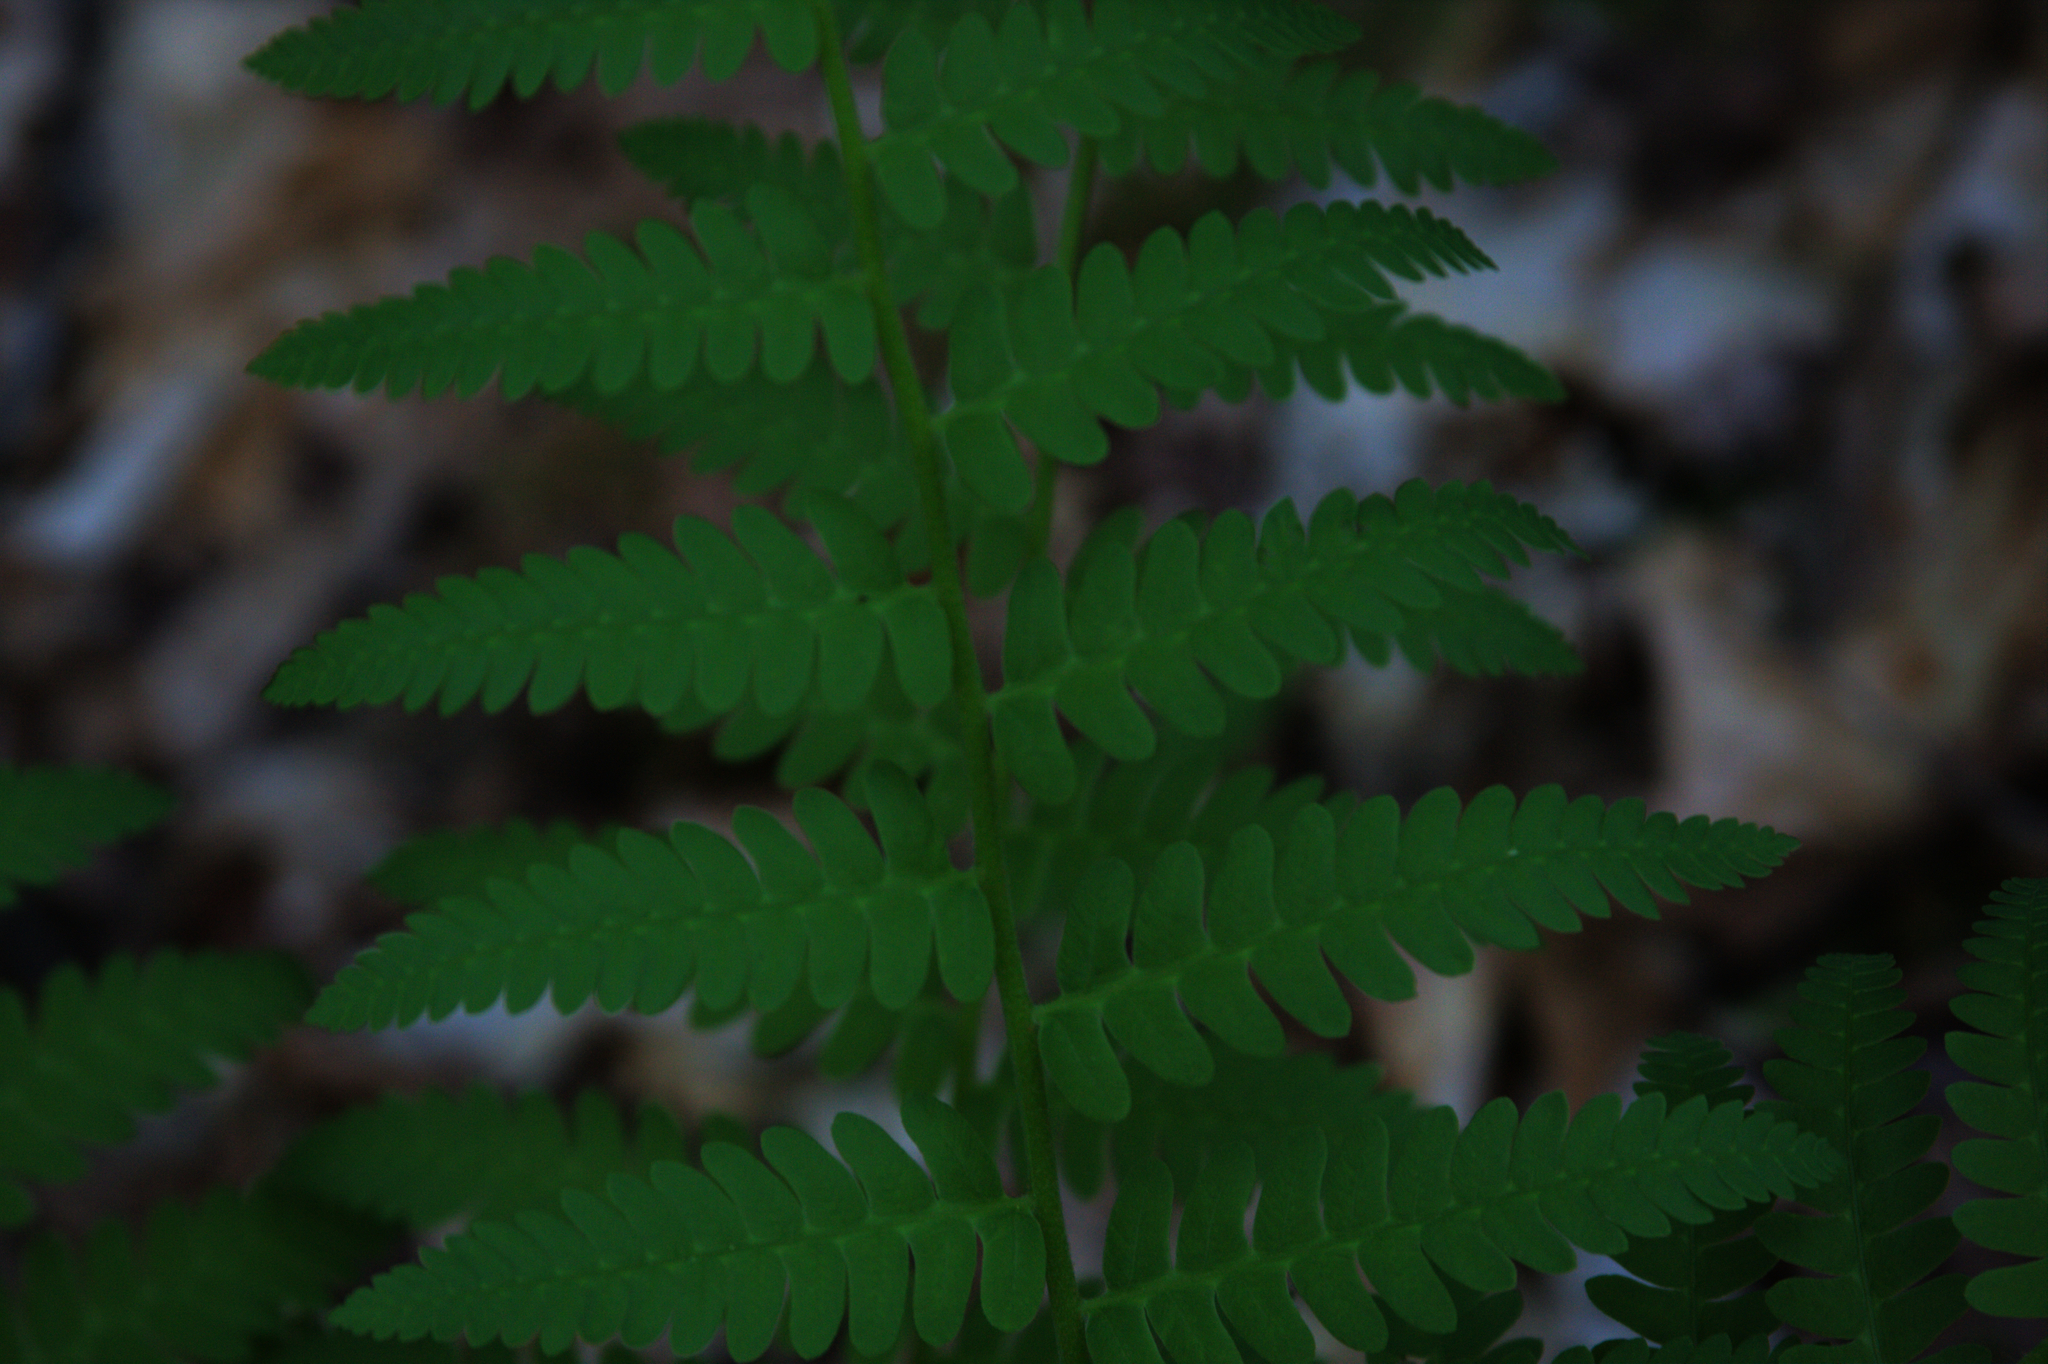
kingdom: Plantae
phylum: Tracheophyta
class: Polypodiopsida
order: Osmundales
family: Osmundaceae
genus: Claytosmunda
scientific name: Claytosmunda claytoniana
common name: Clayton's fern
